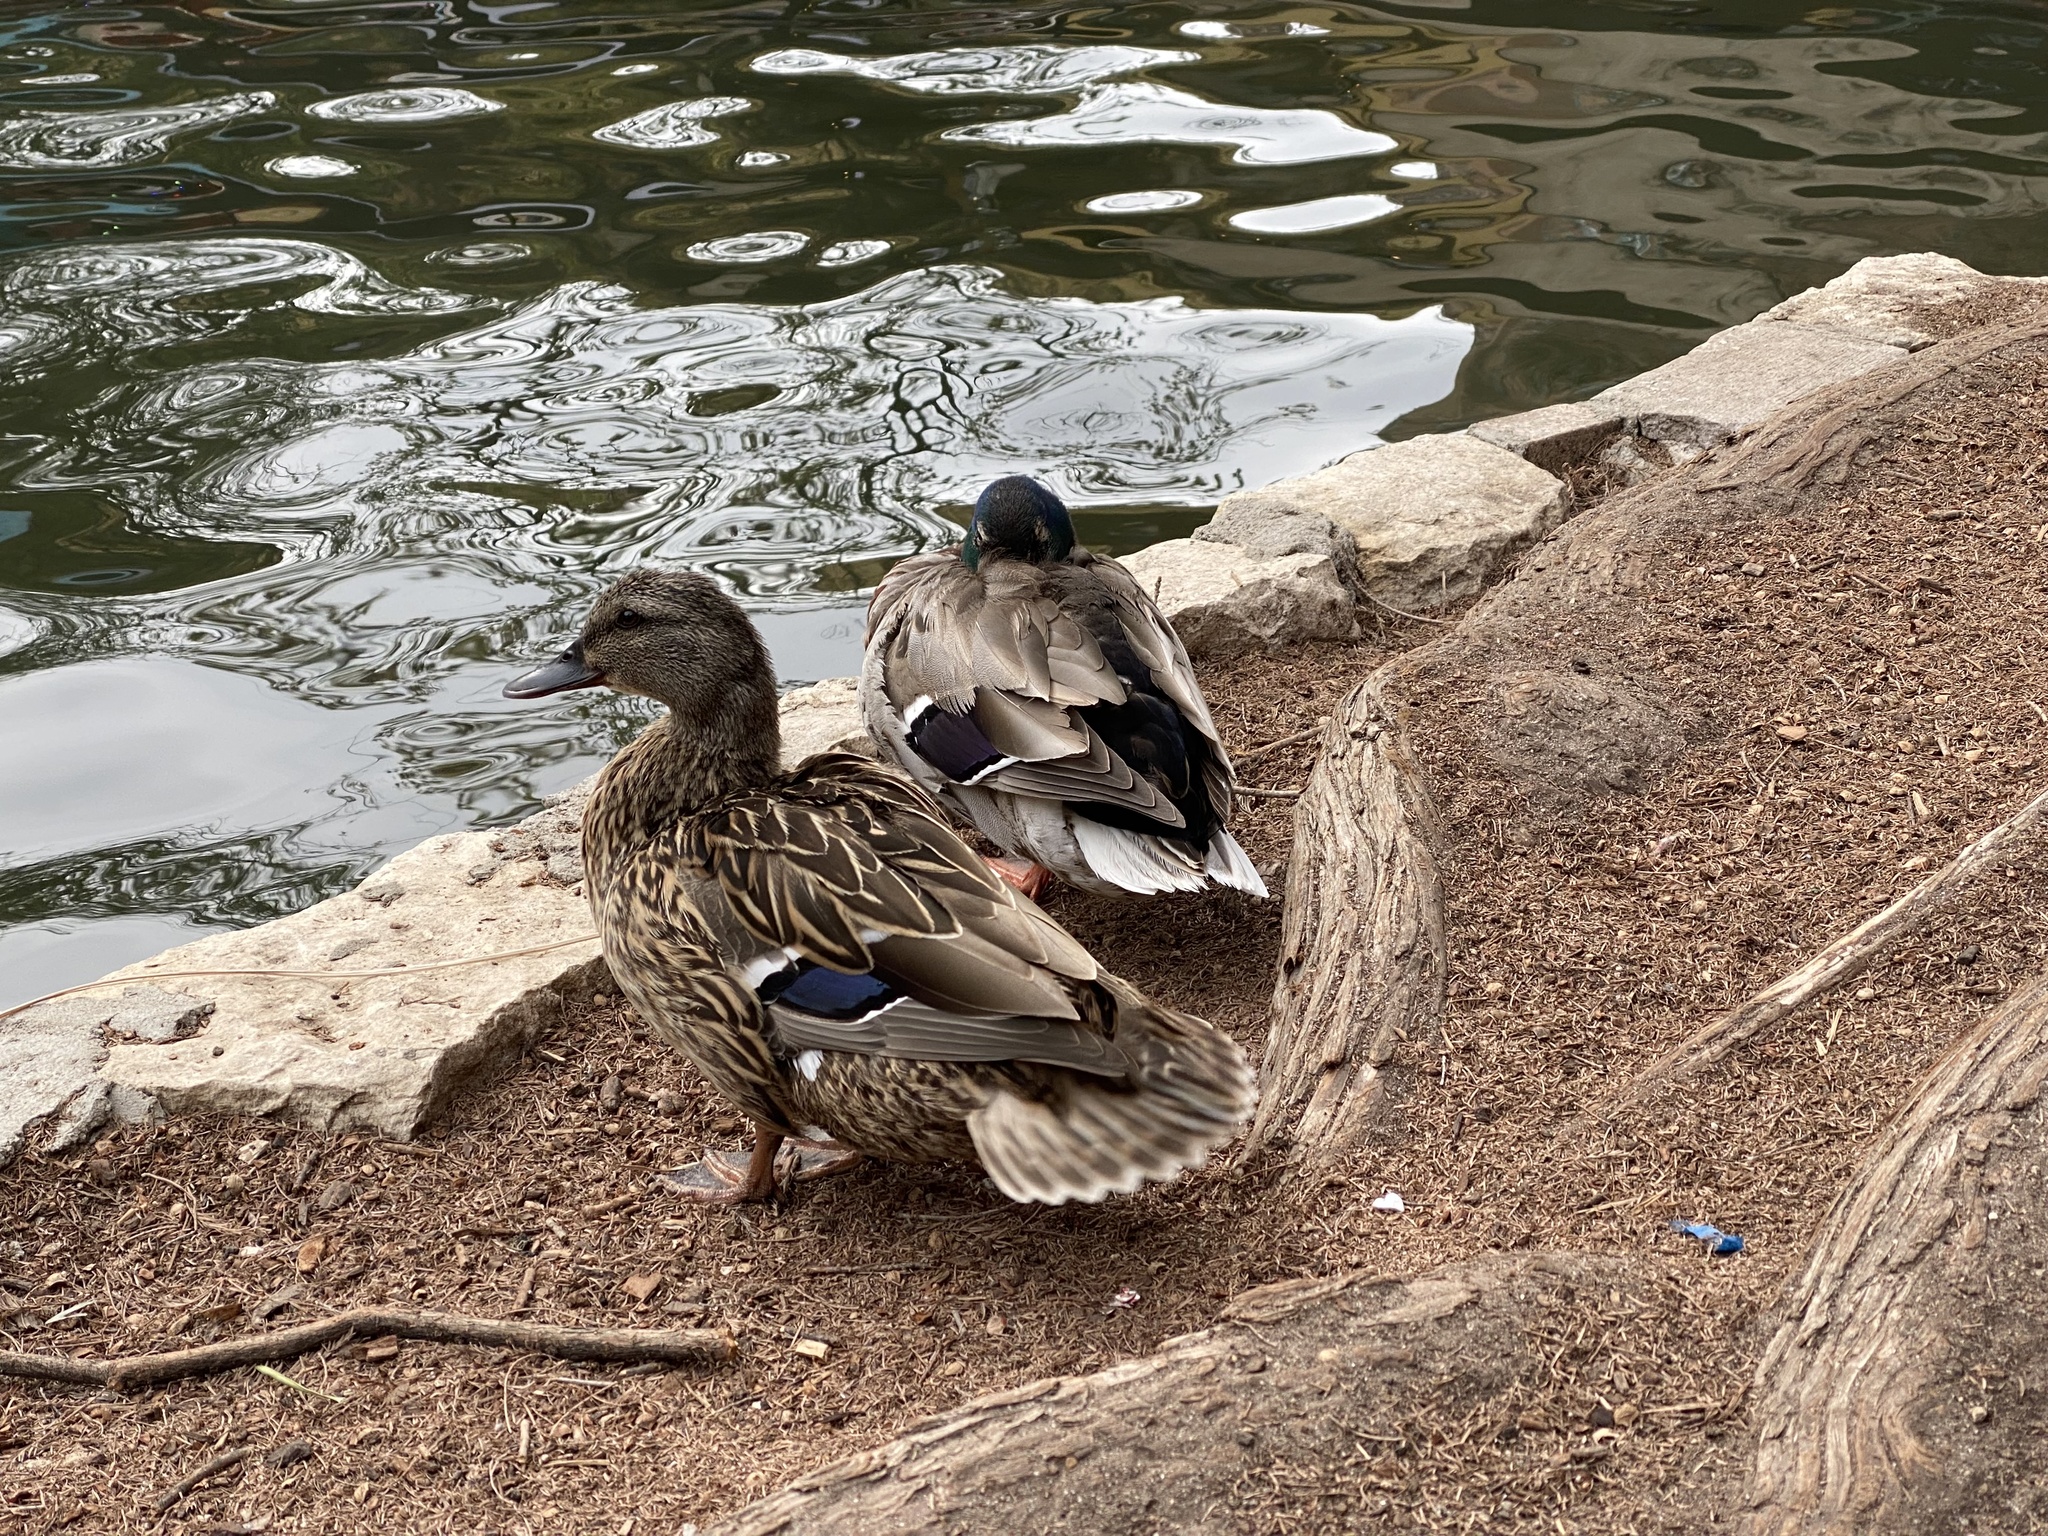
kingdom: Animalia
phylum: Chordata
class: Aves
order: Anseriformes
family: Anatidae
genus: Anas
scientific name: Anas platyrhynchos
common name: Mallard
